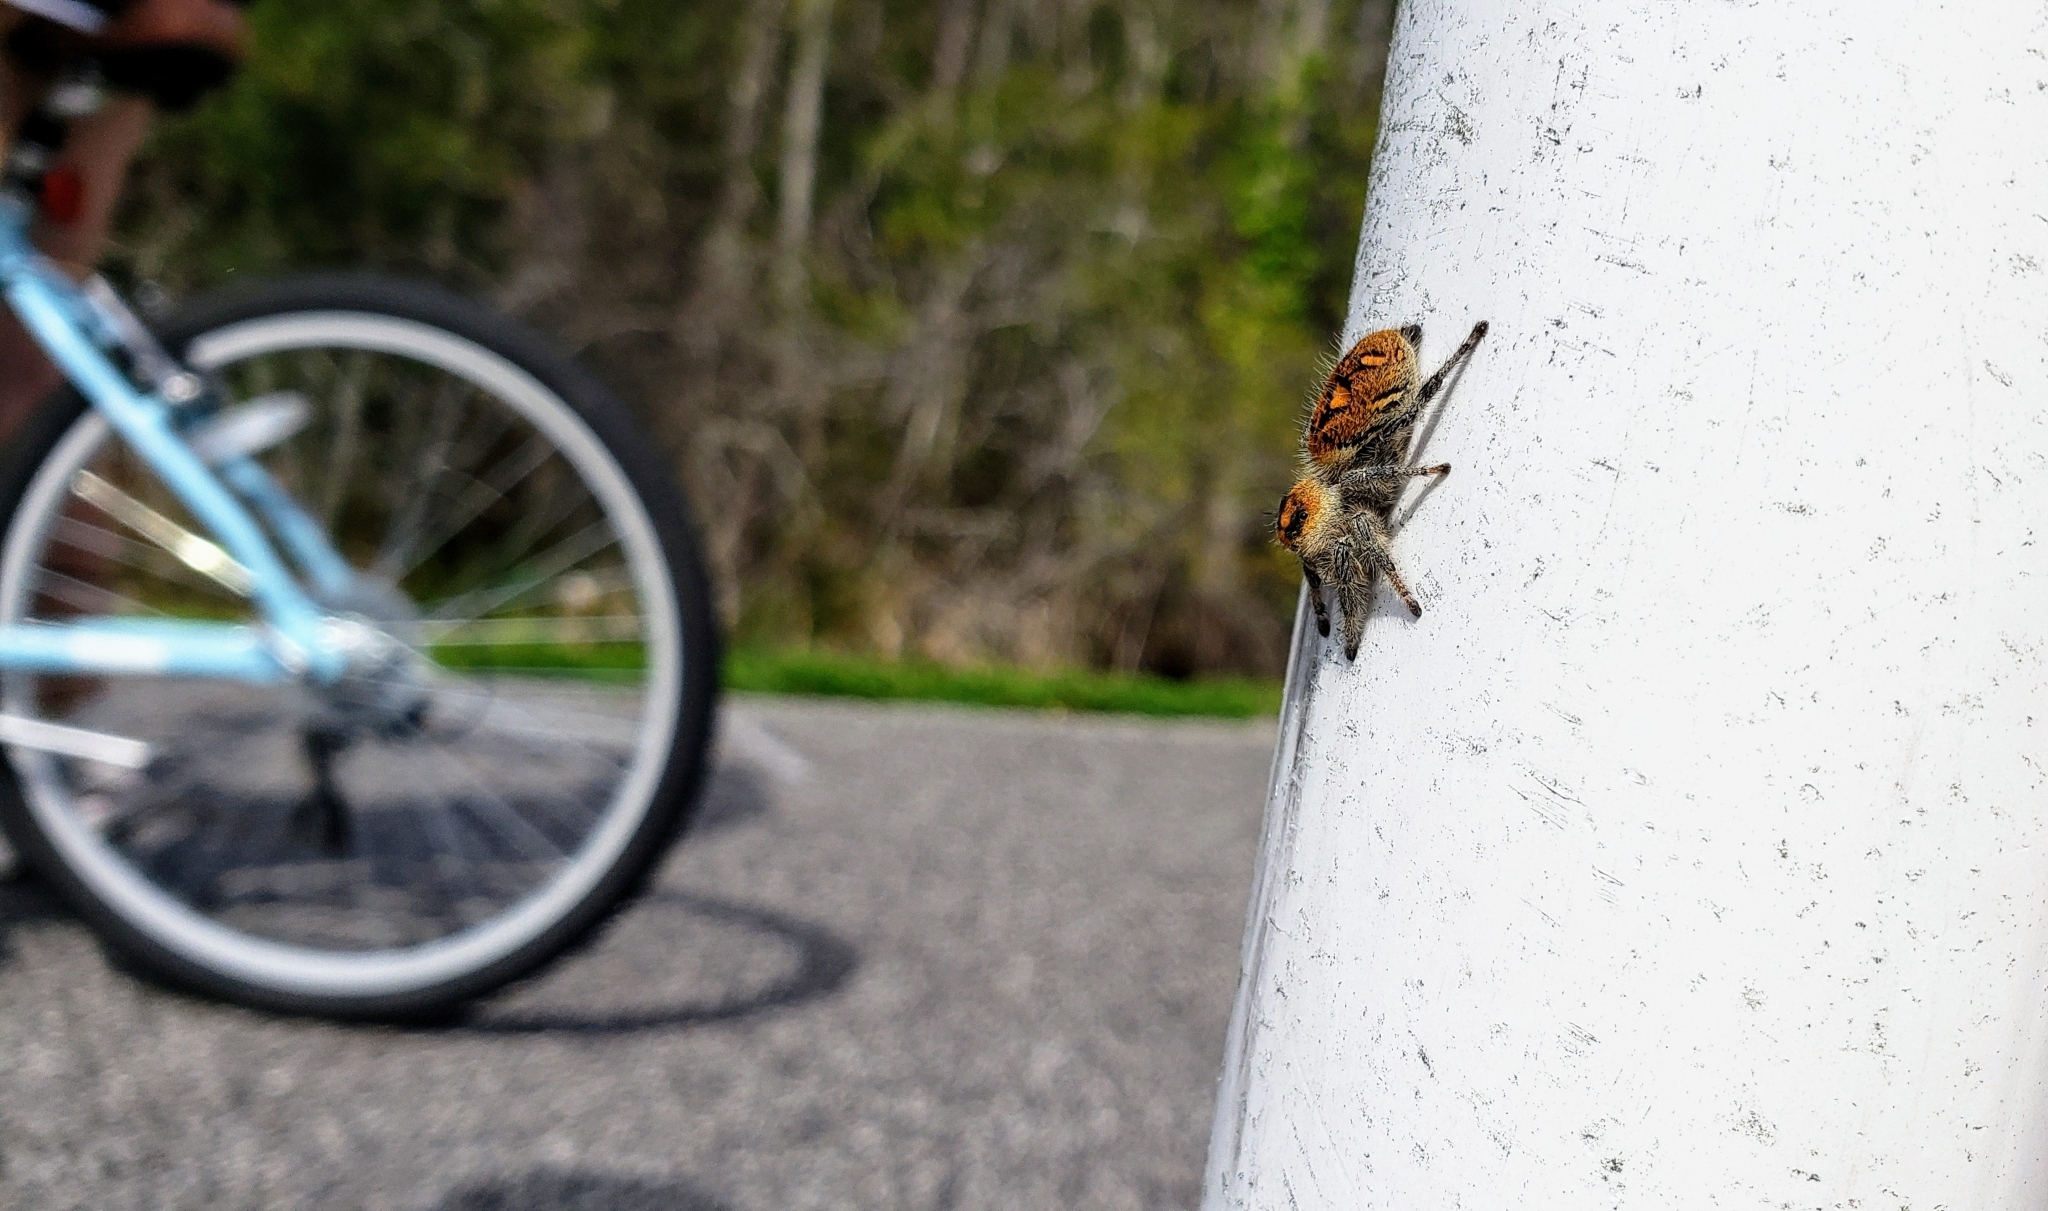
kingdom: Animalia
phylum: Arthropoda
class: Arachnida
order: Araneae
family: Salticidae
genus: Phidippus
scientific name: Phidippus regius
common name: Regal jumper
